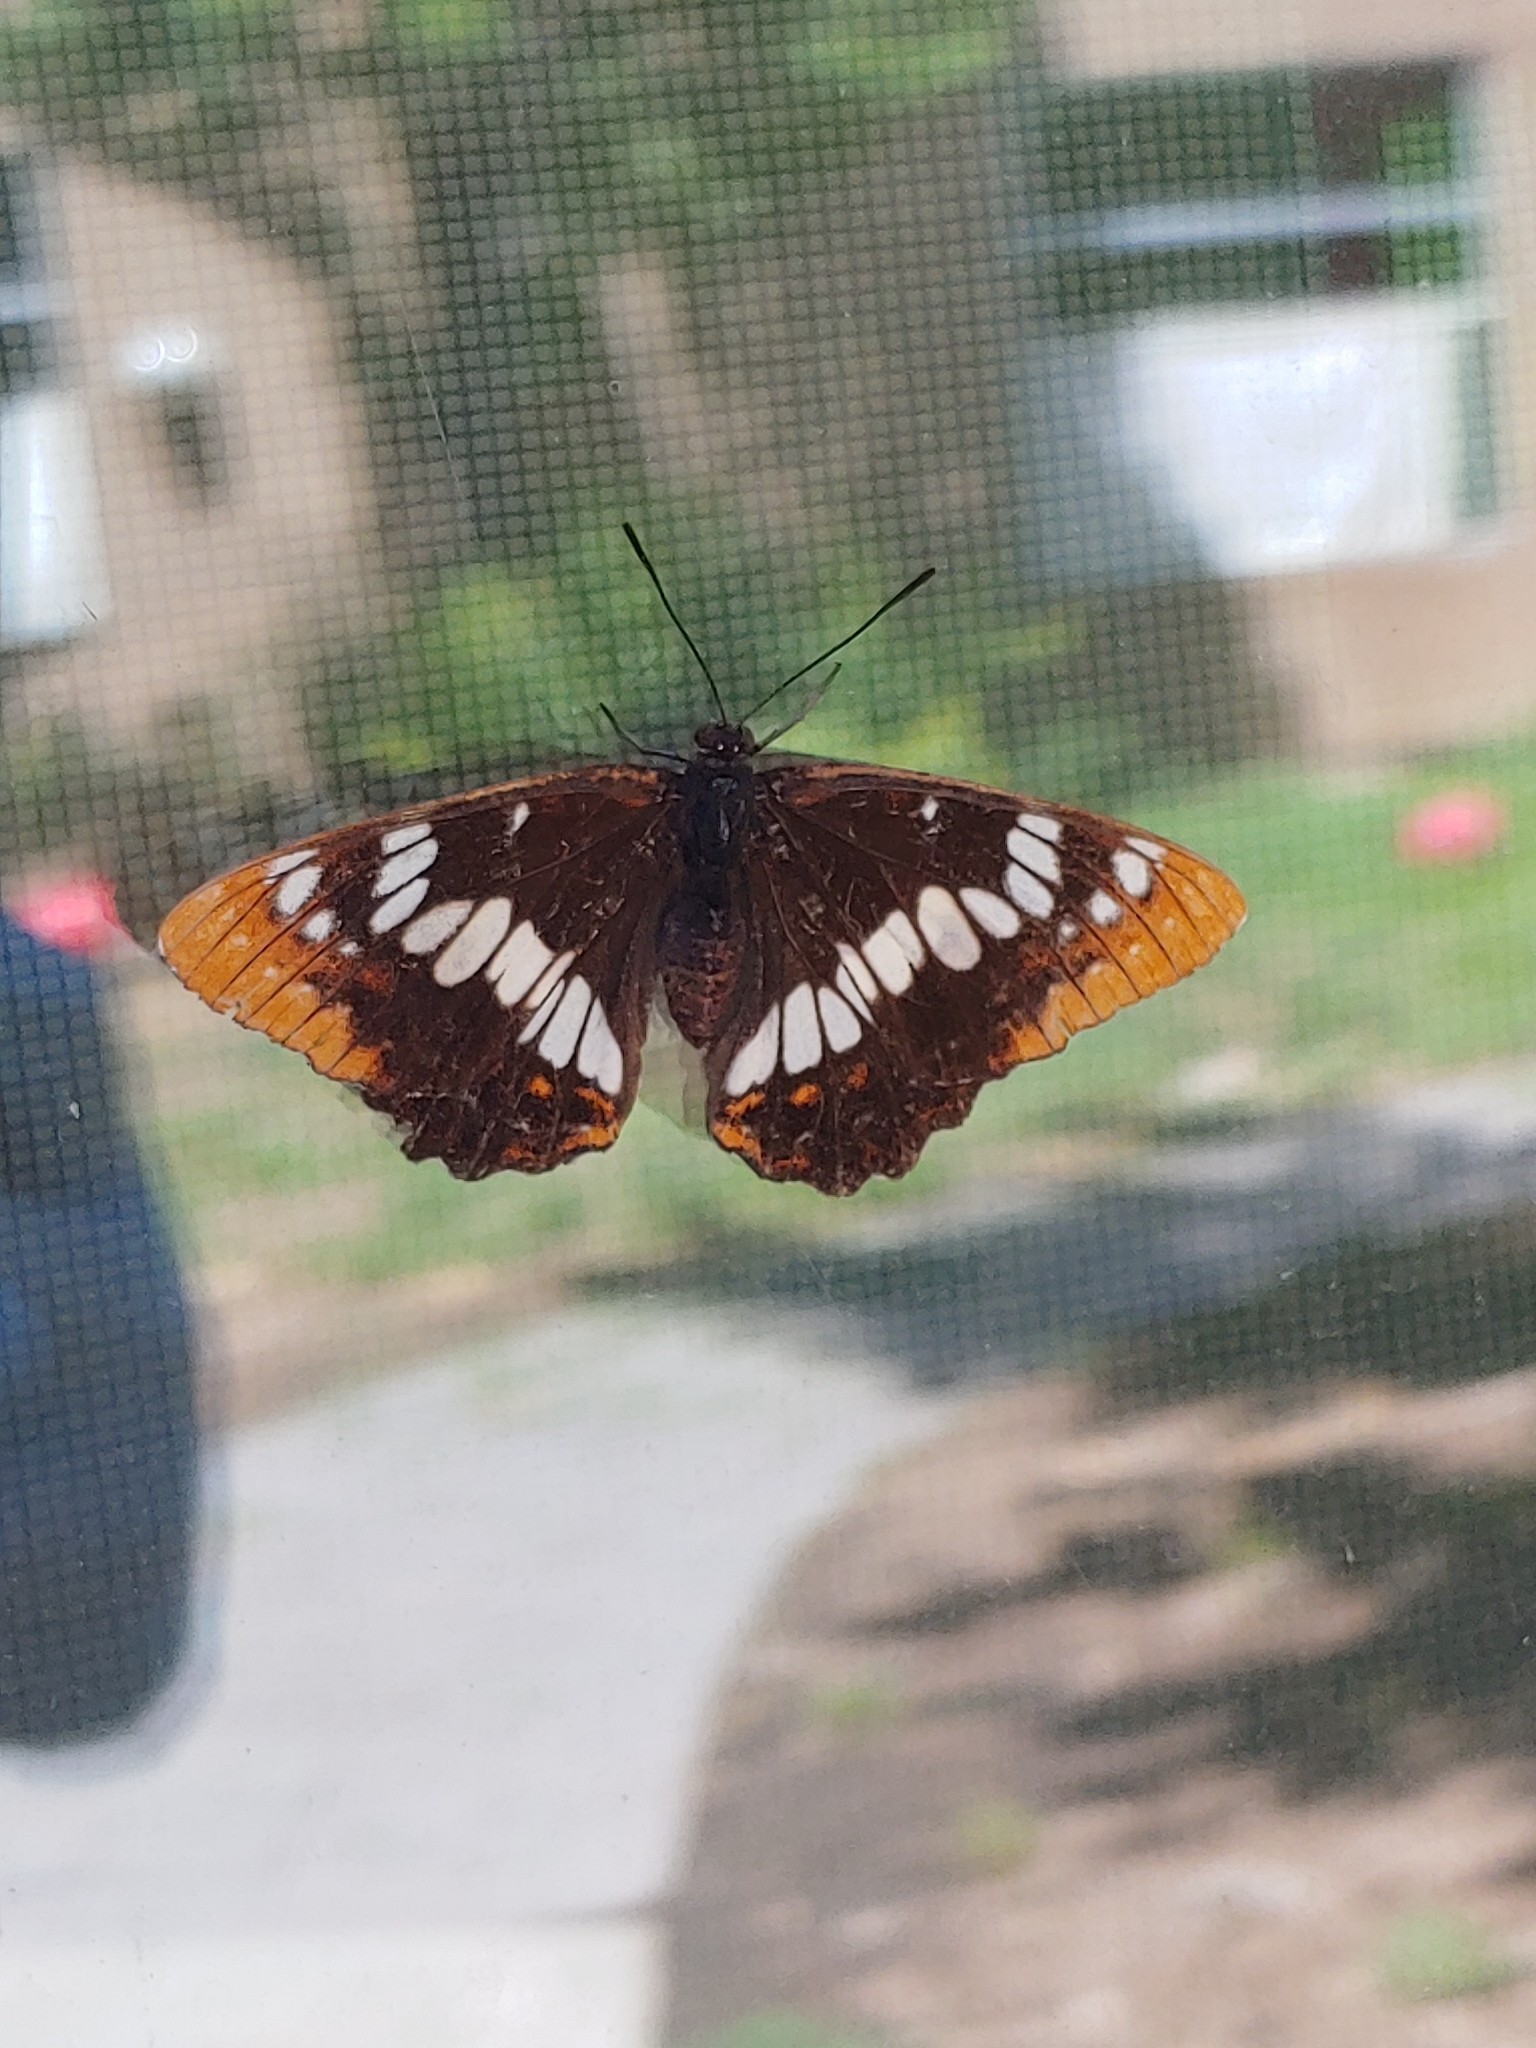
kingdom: Animalia
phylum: Arthropoda
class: Insecta
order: Lepidoptera
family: Nymphalidae
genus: Limenitis
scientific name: Limenitis lorquini
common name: Lorquin's admiral
